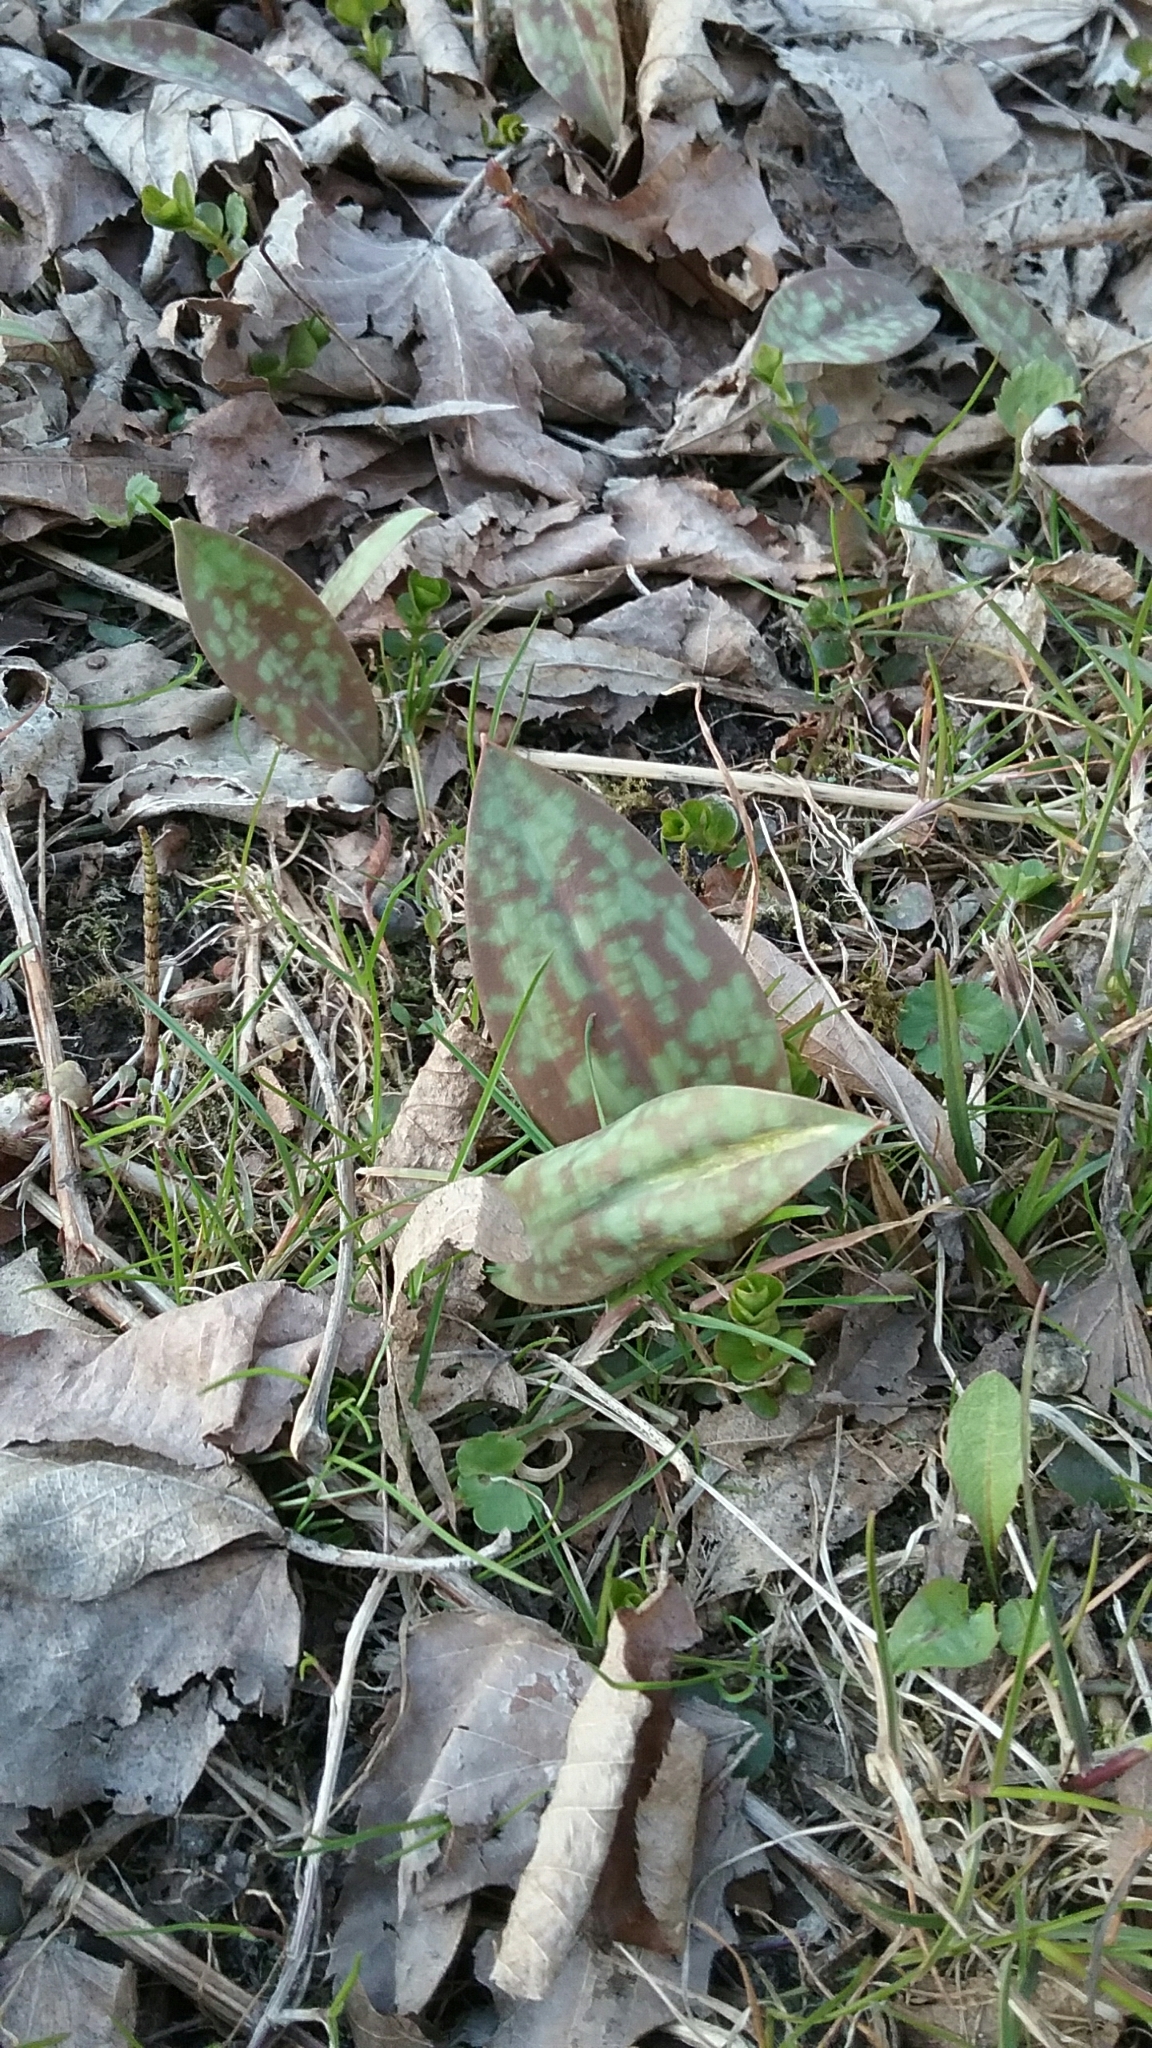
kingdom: Plantae
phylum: Tracheophyta
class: Liliopsida
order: Liliales
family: Liliaceae
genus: Erythronium
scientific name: Erythronium americanum
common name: Yellow adder's-tongue
